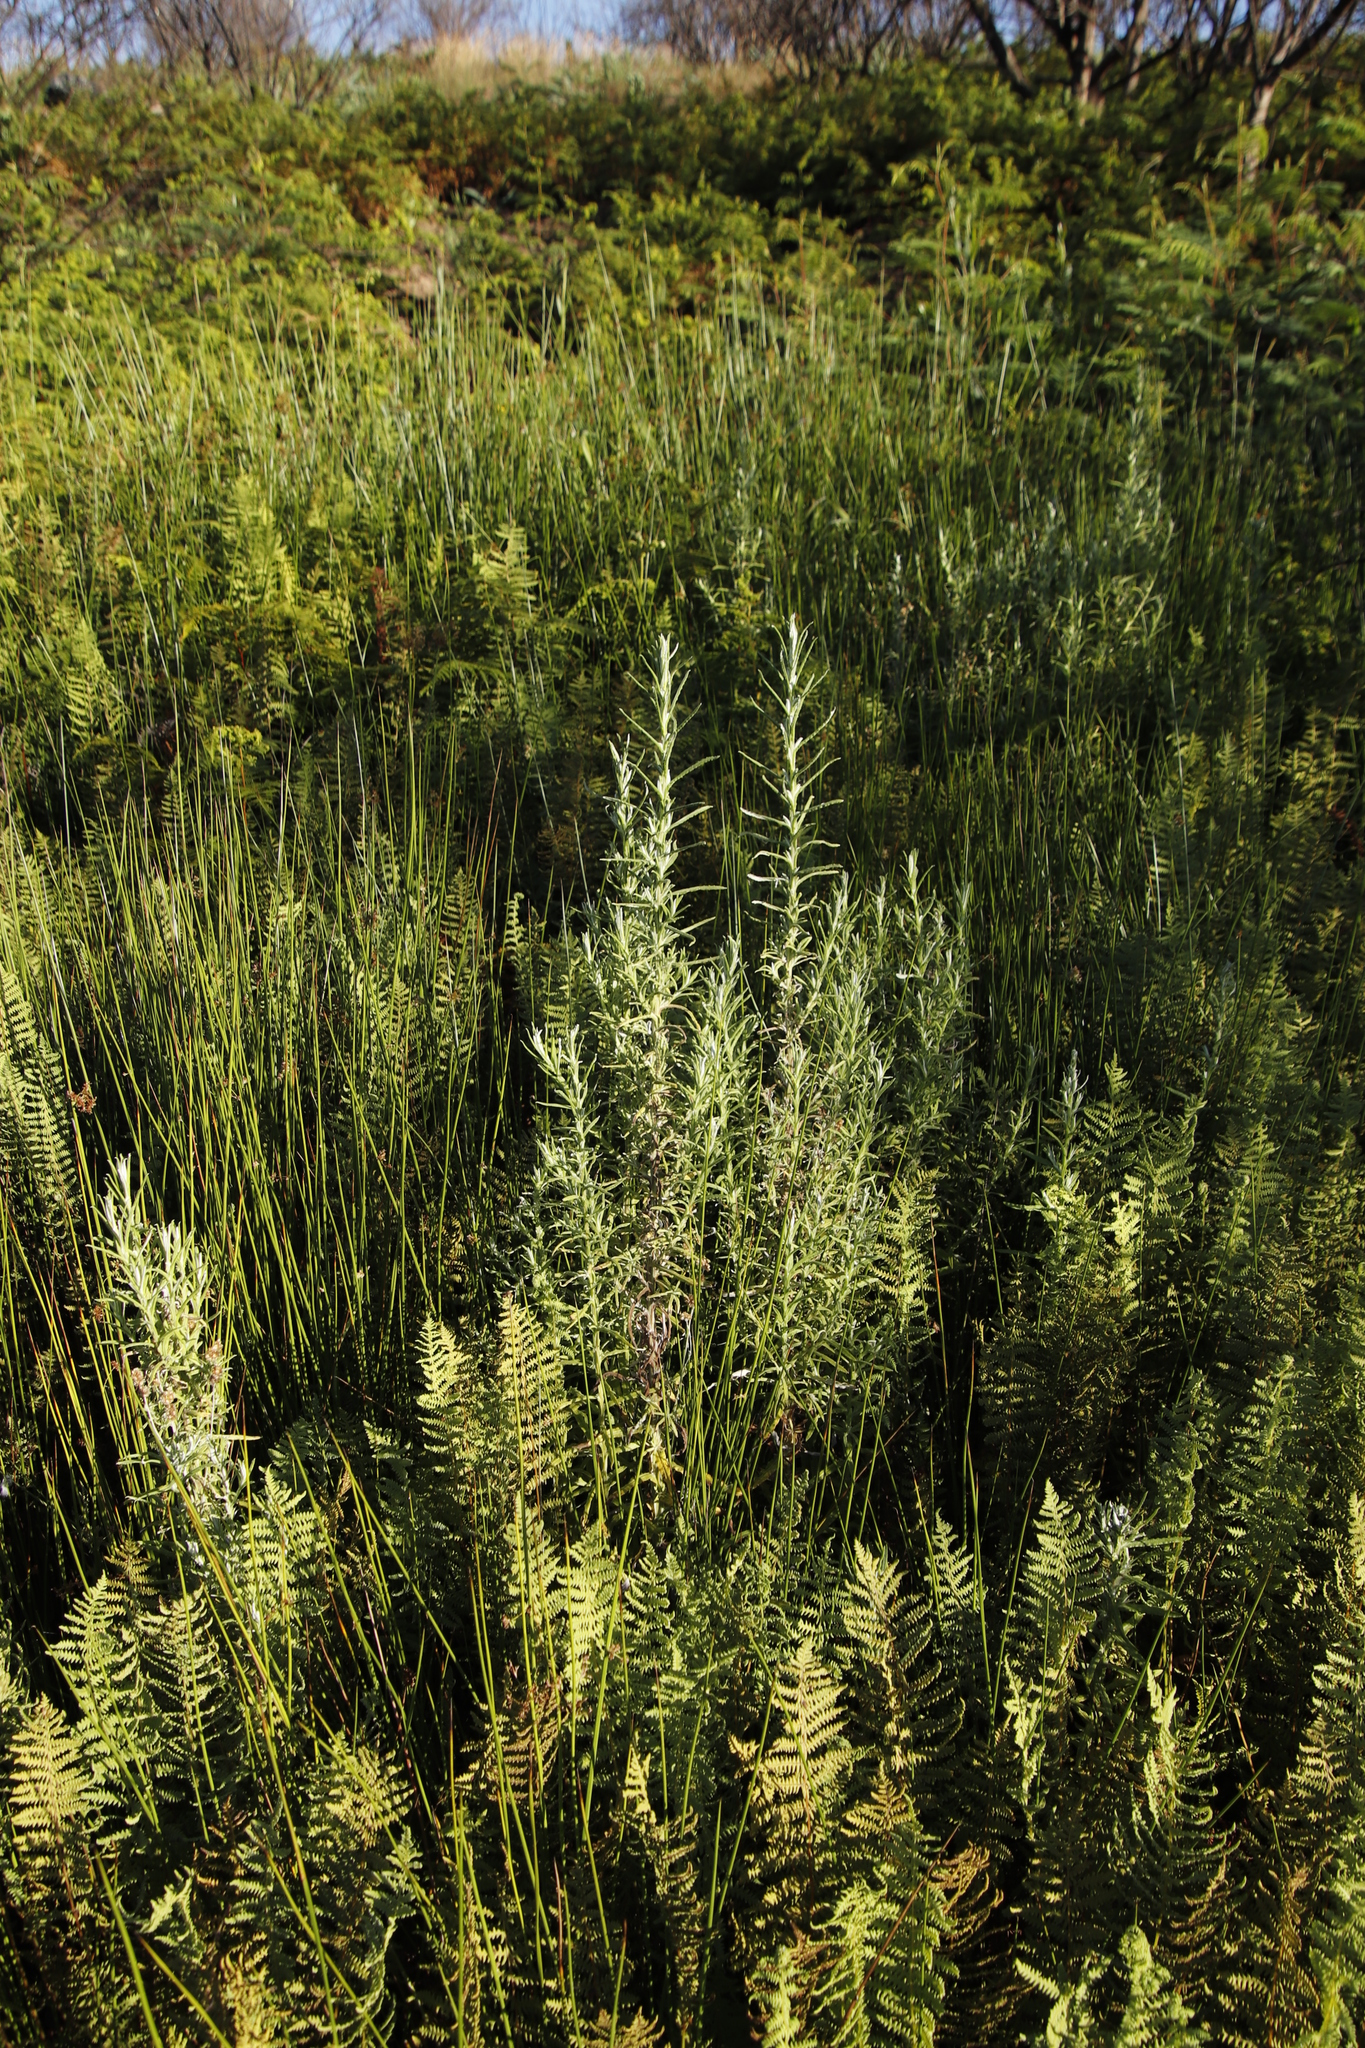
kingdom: Plantae
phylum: Tracheophyta
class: Magnoliopsida
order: Asterales
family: Asteraceae
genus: Pseudognaphalium
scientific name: Pseudognaphalium undulatum
